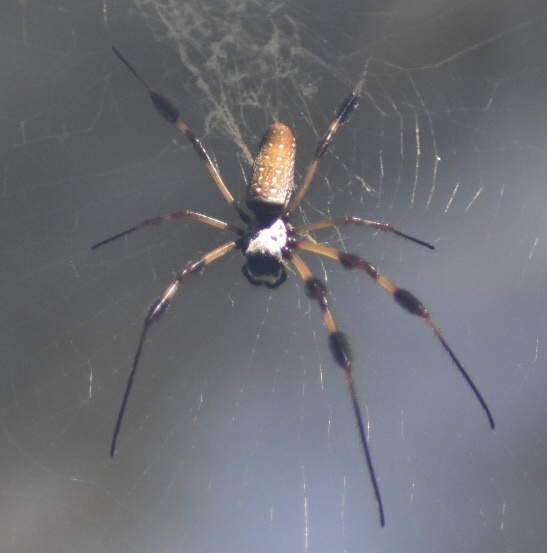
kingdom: Animalia
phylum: Arthropoda
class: Arachnida
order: Araneae
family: Araneidae
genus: Trichonephila
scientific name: Trichonephila clavipes
